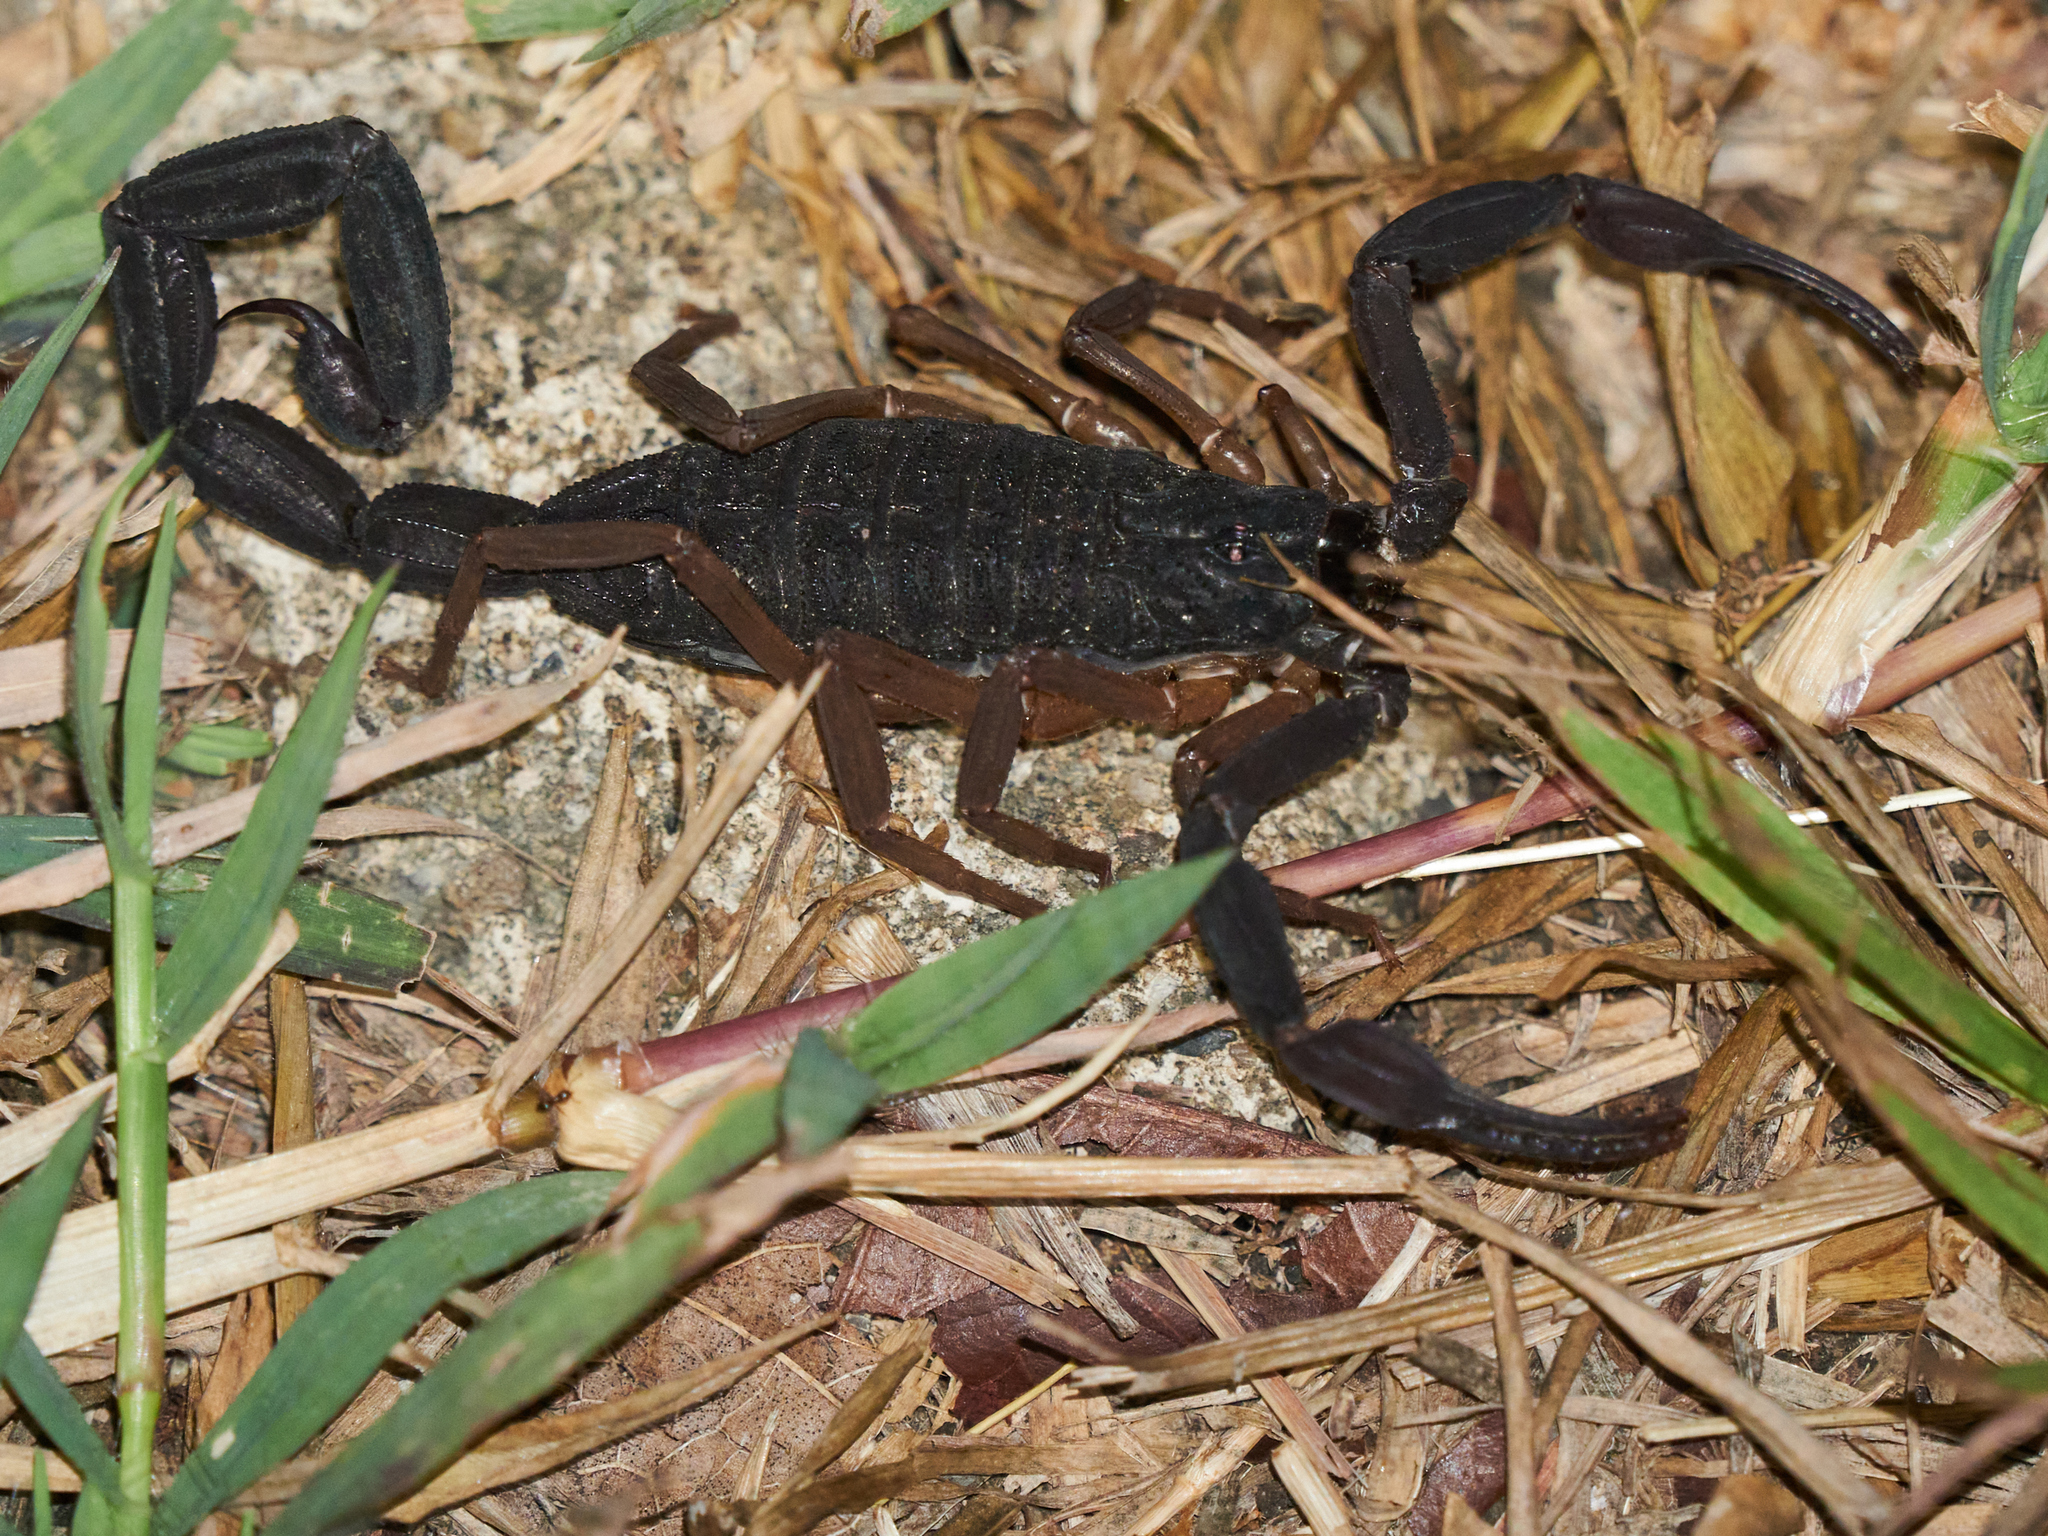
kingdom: Animalia
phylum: Arthropoda
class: Arachnida
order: Scorpiones
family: Buthidae
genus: Centruroides
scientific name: Centruroides gracilis
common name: Scorpions
